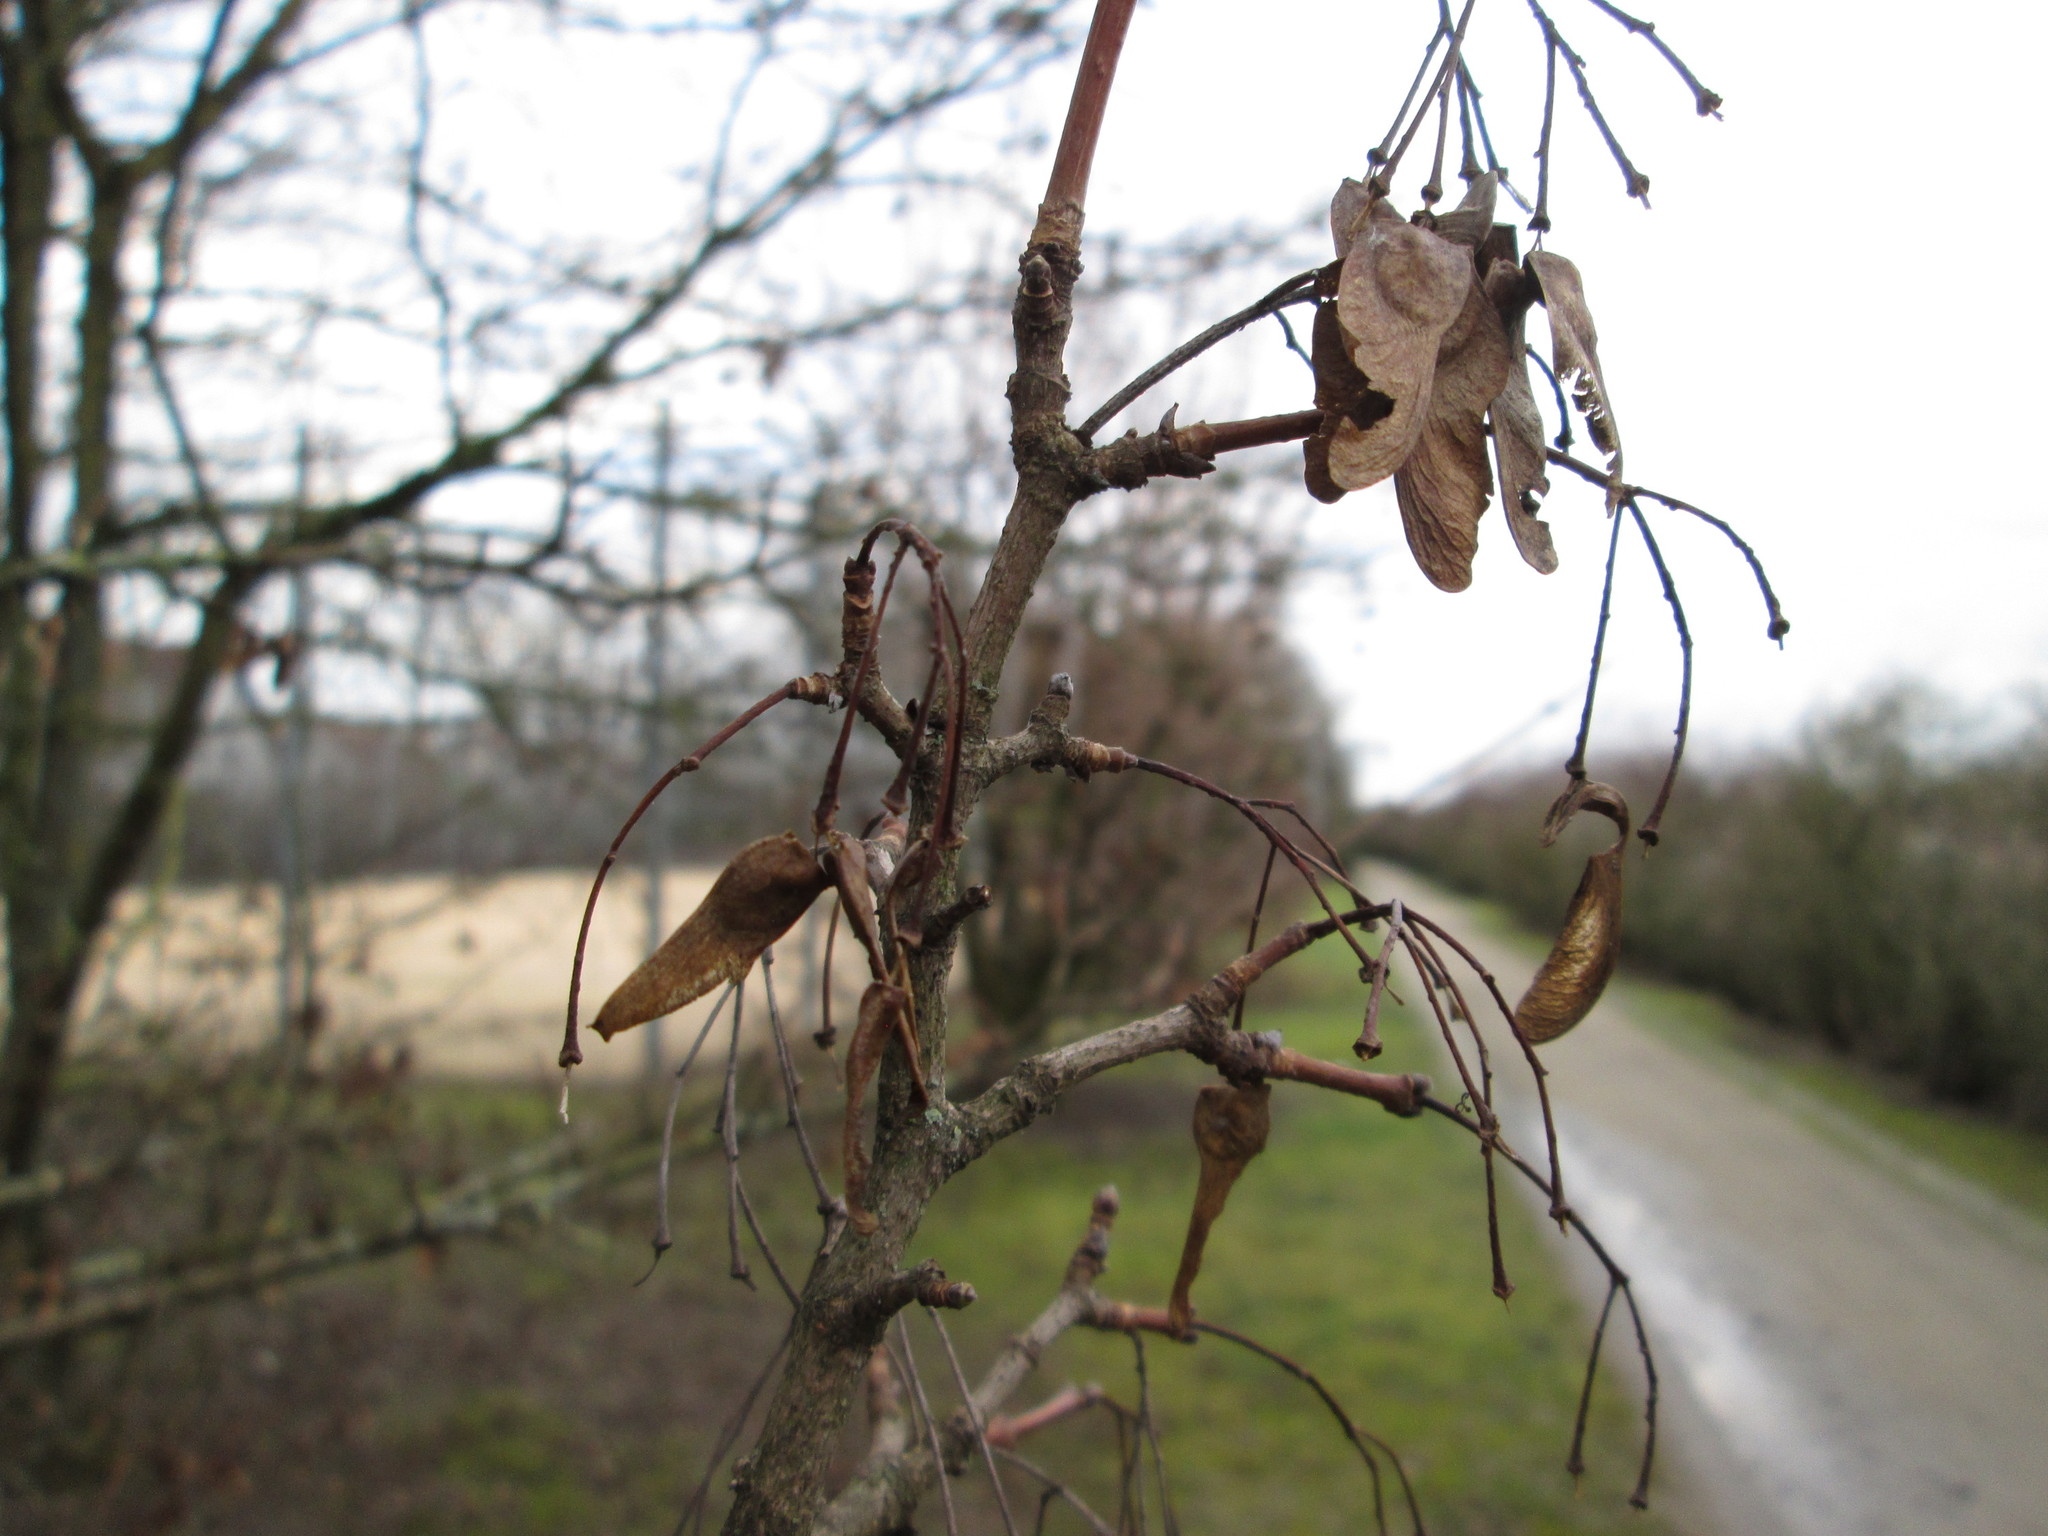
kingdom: Plantae
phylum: Tracheophyta
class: Magnoliopsida
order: Sapindales
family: Sapindaceae
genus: Acer
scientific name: Acer campestre
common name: Field maple
